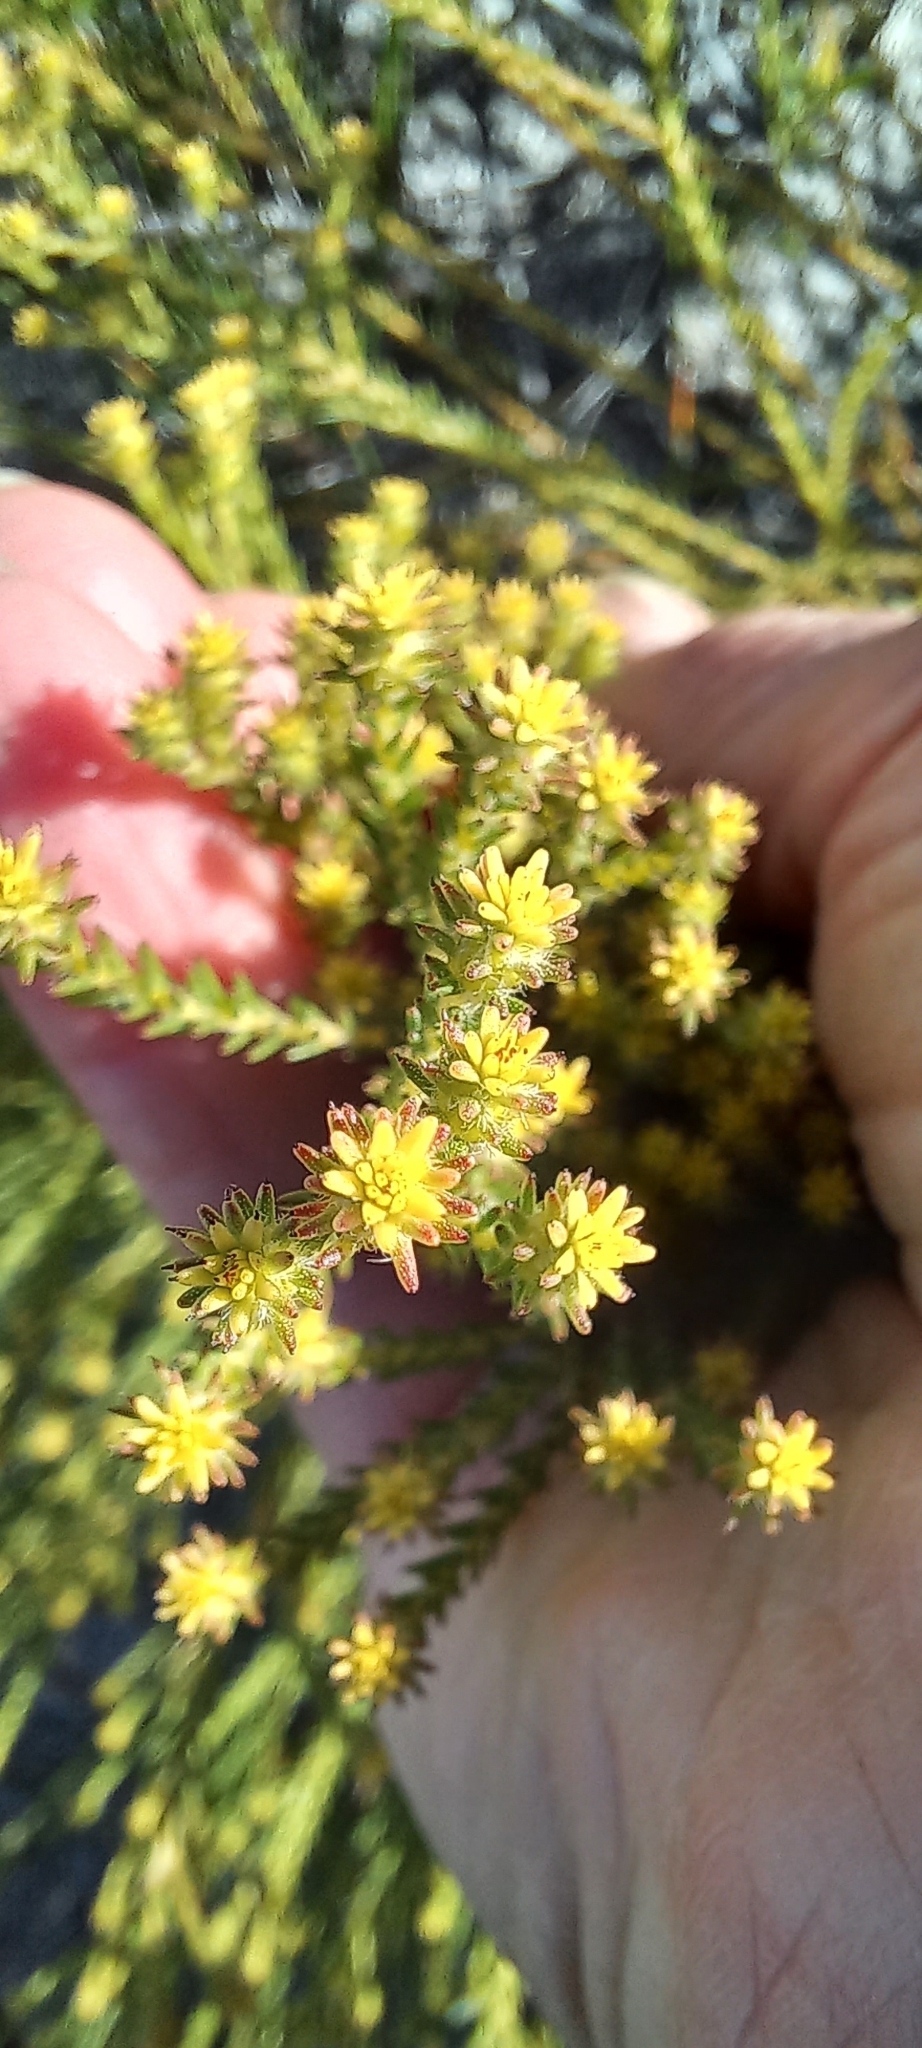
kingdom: Plantae
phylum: Tracheophyta
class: Magnoliopsida
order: Bruniales
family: Bruniaceae
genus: Staavia
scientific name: Staavia radiata
